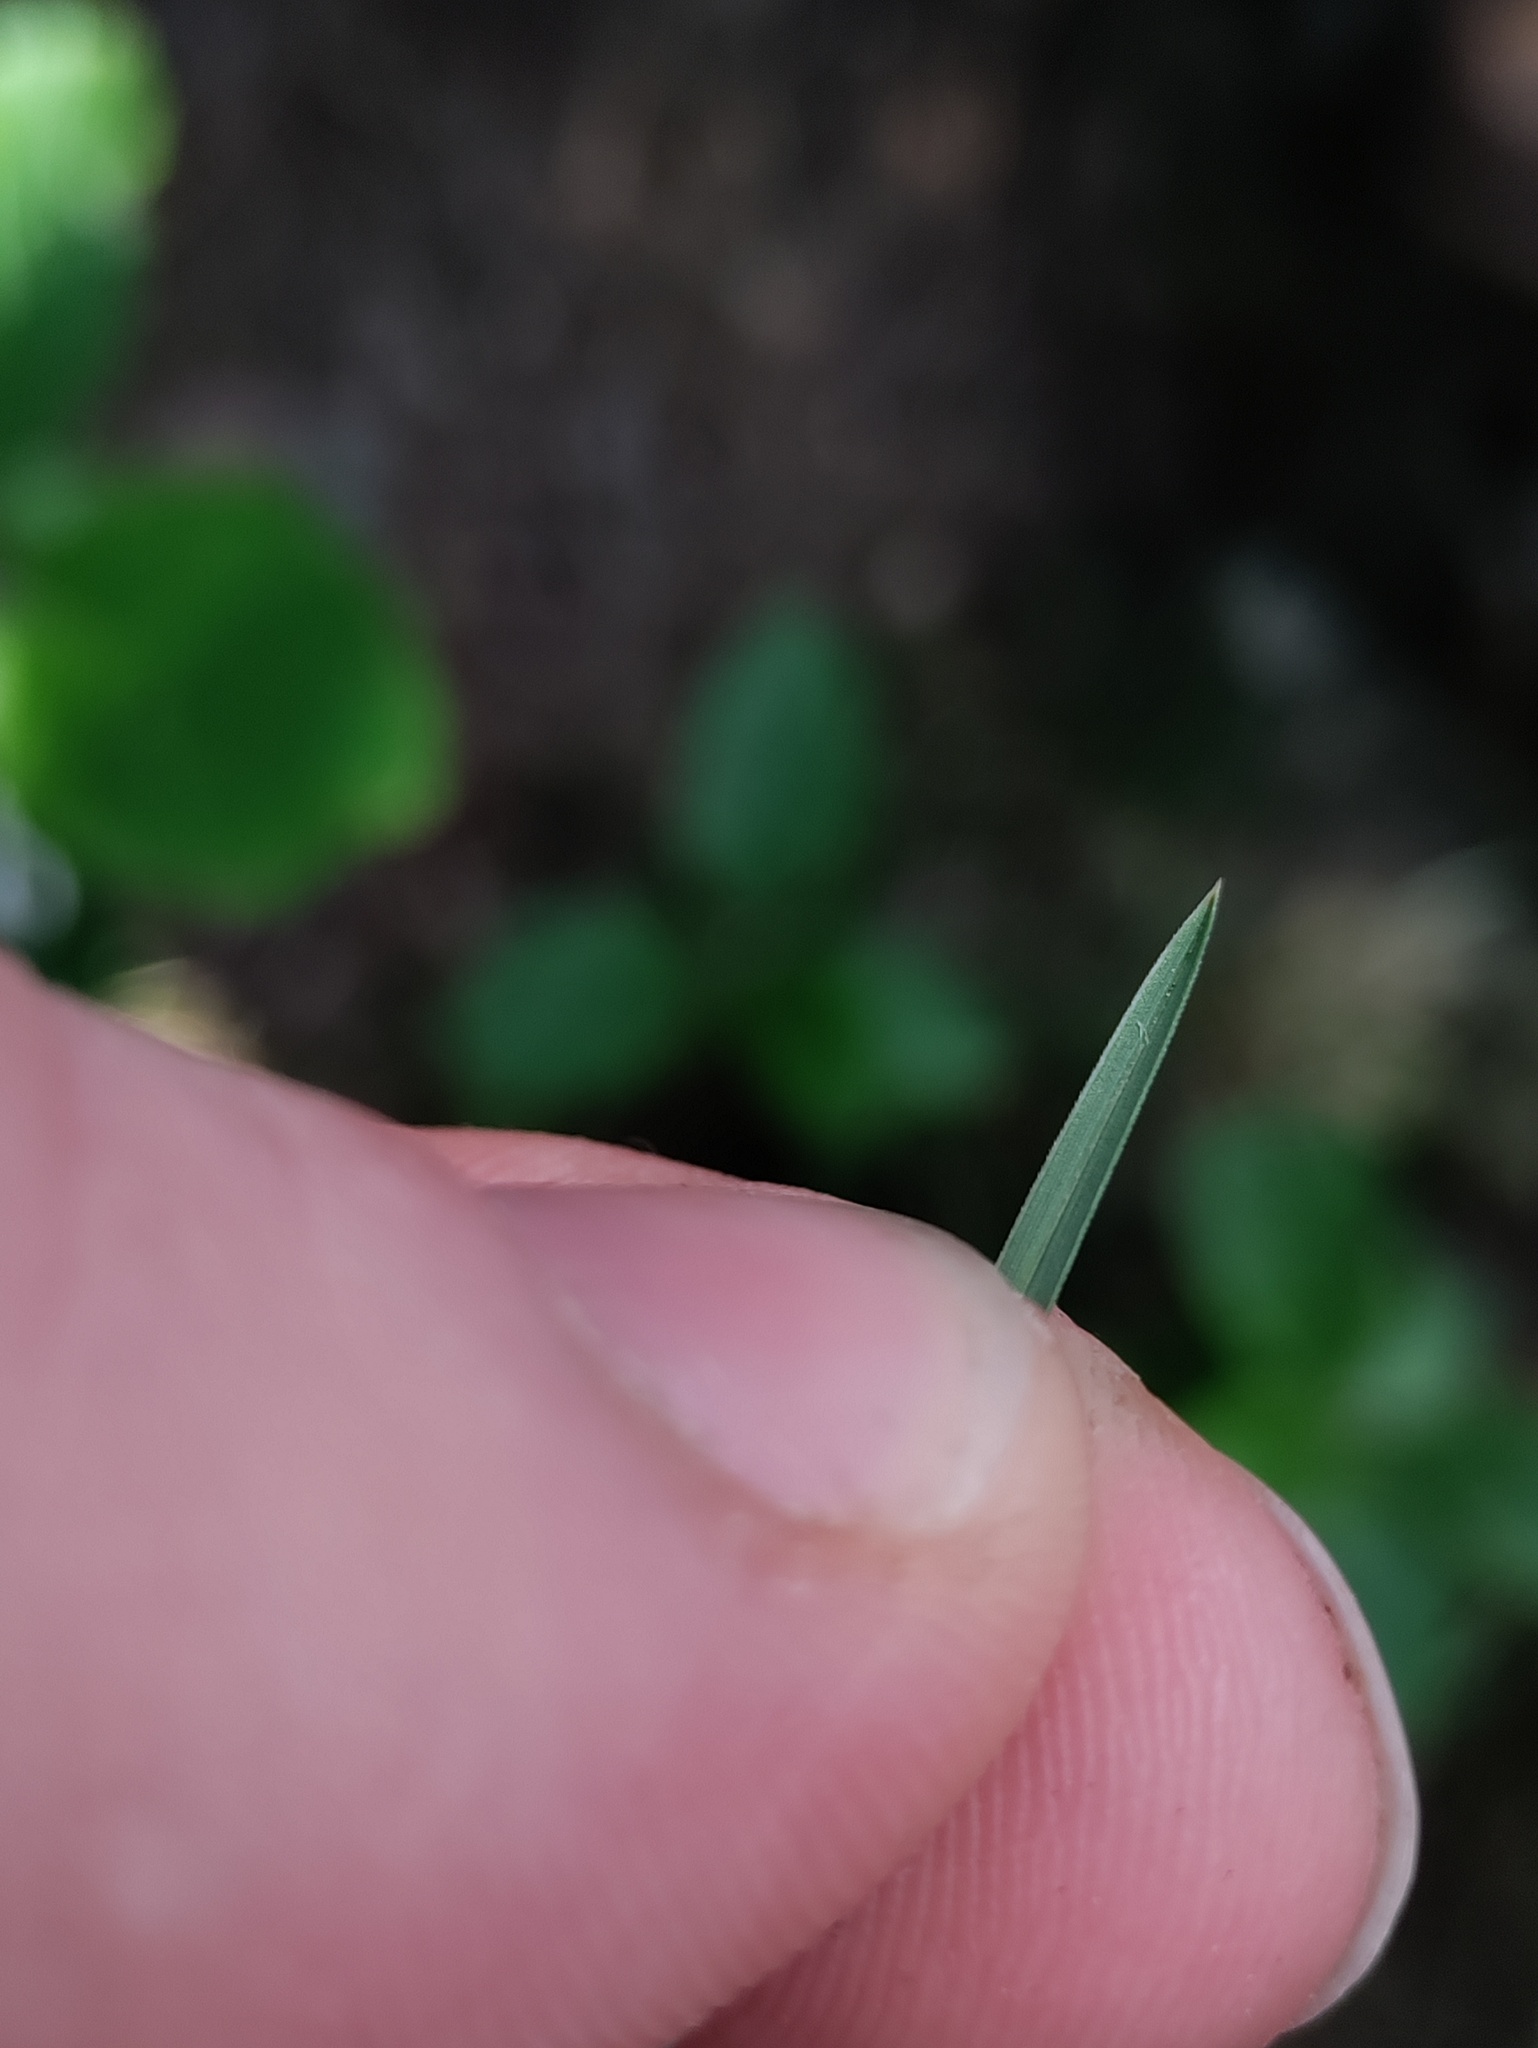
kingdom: Plantae
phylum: Tracheophyta
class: Liliopsida
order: Poales
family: Poaceae
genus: Sesleria
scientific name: Sesleria caerulea
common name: Blue moor-grass
